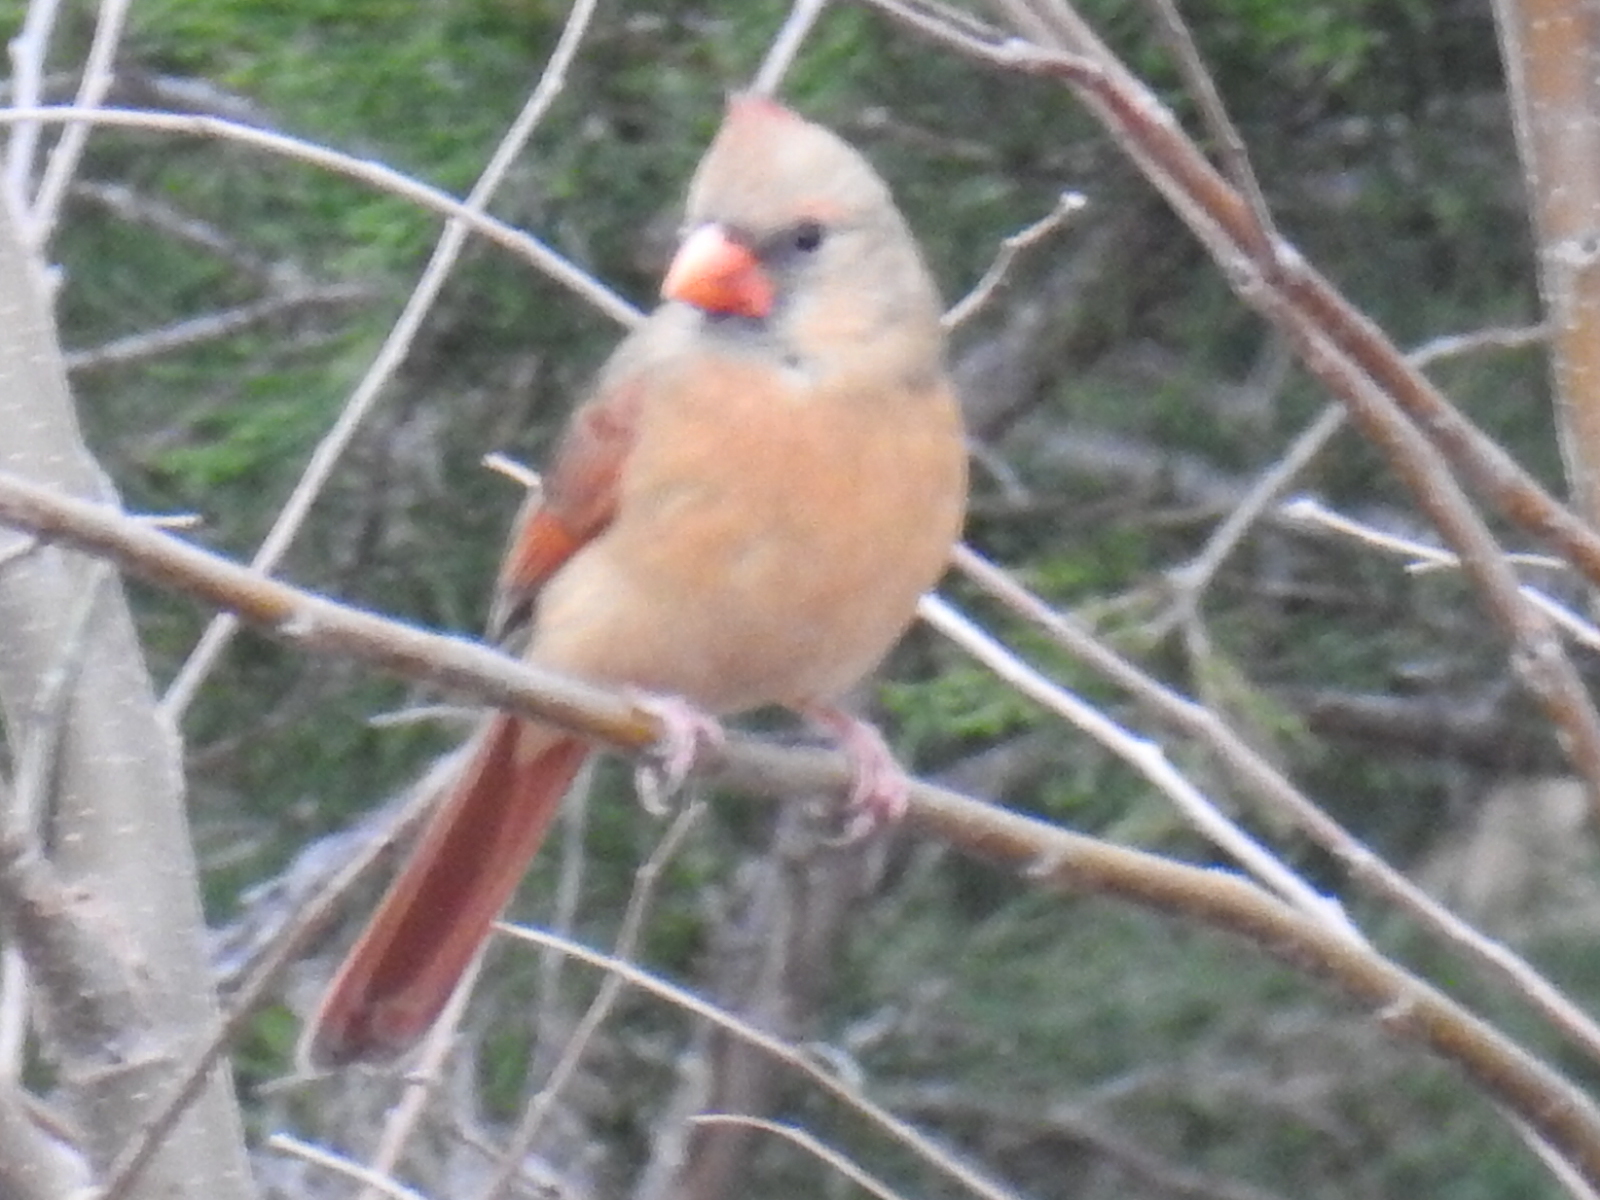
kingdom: Animalia
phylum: Chordata
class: Aves
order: Passeriformes
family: Cardinalidae
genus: Cardinalis
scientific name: Cardinalis cardinalis
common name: Northern cardinal
